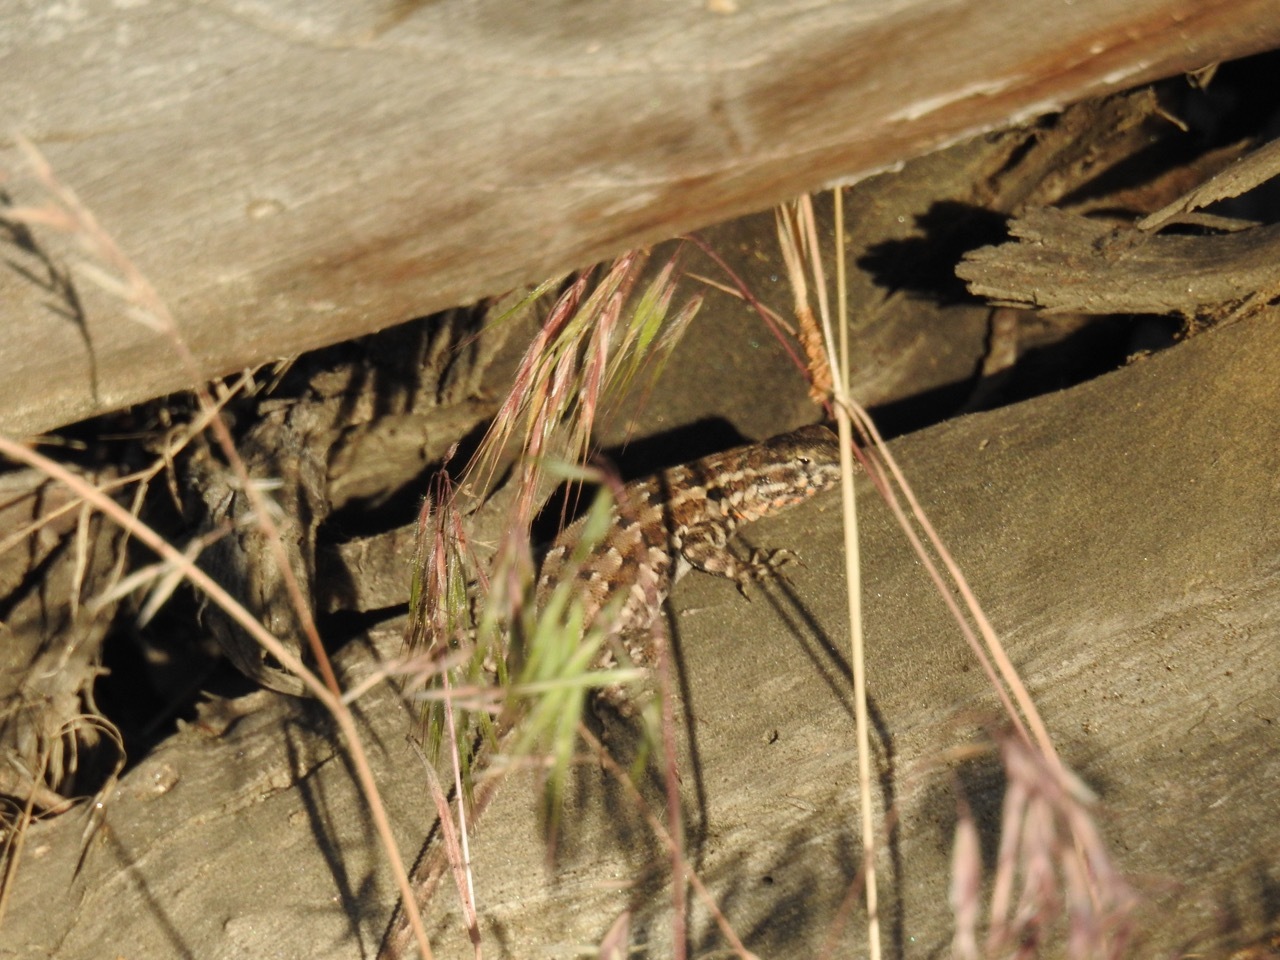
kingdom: Animalia
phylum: Chordata
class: Squamata
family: Phrynosomatidae
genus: Uta
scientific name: Uta stansburiana
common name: Side-blotched lizard
